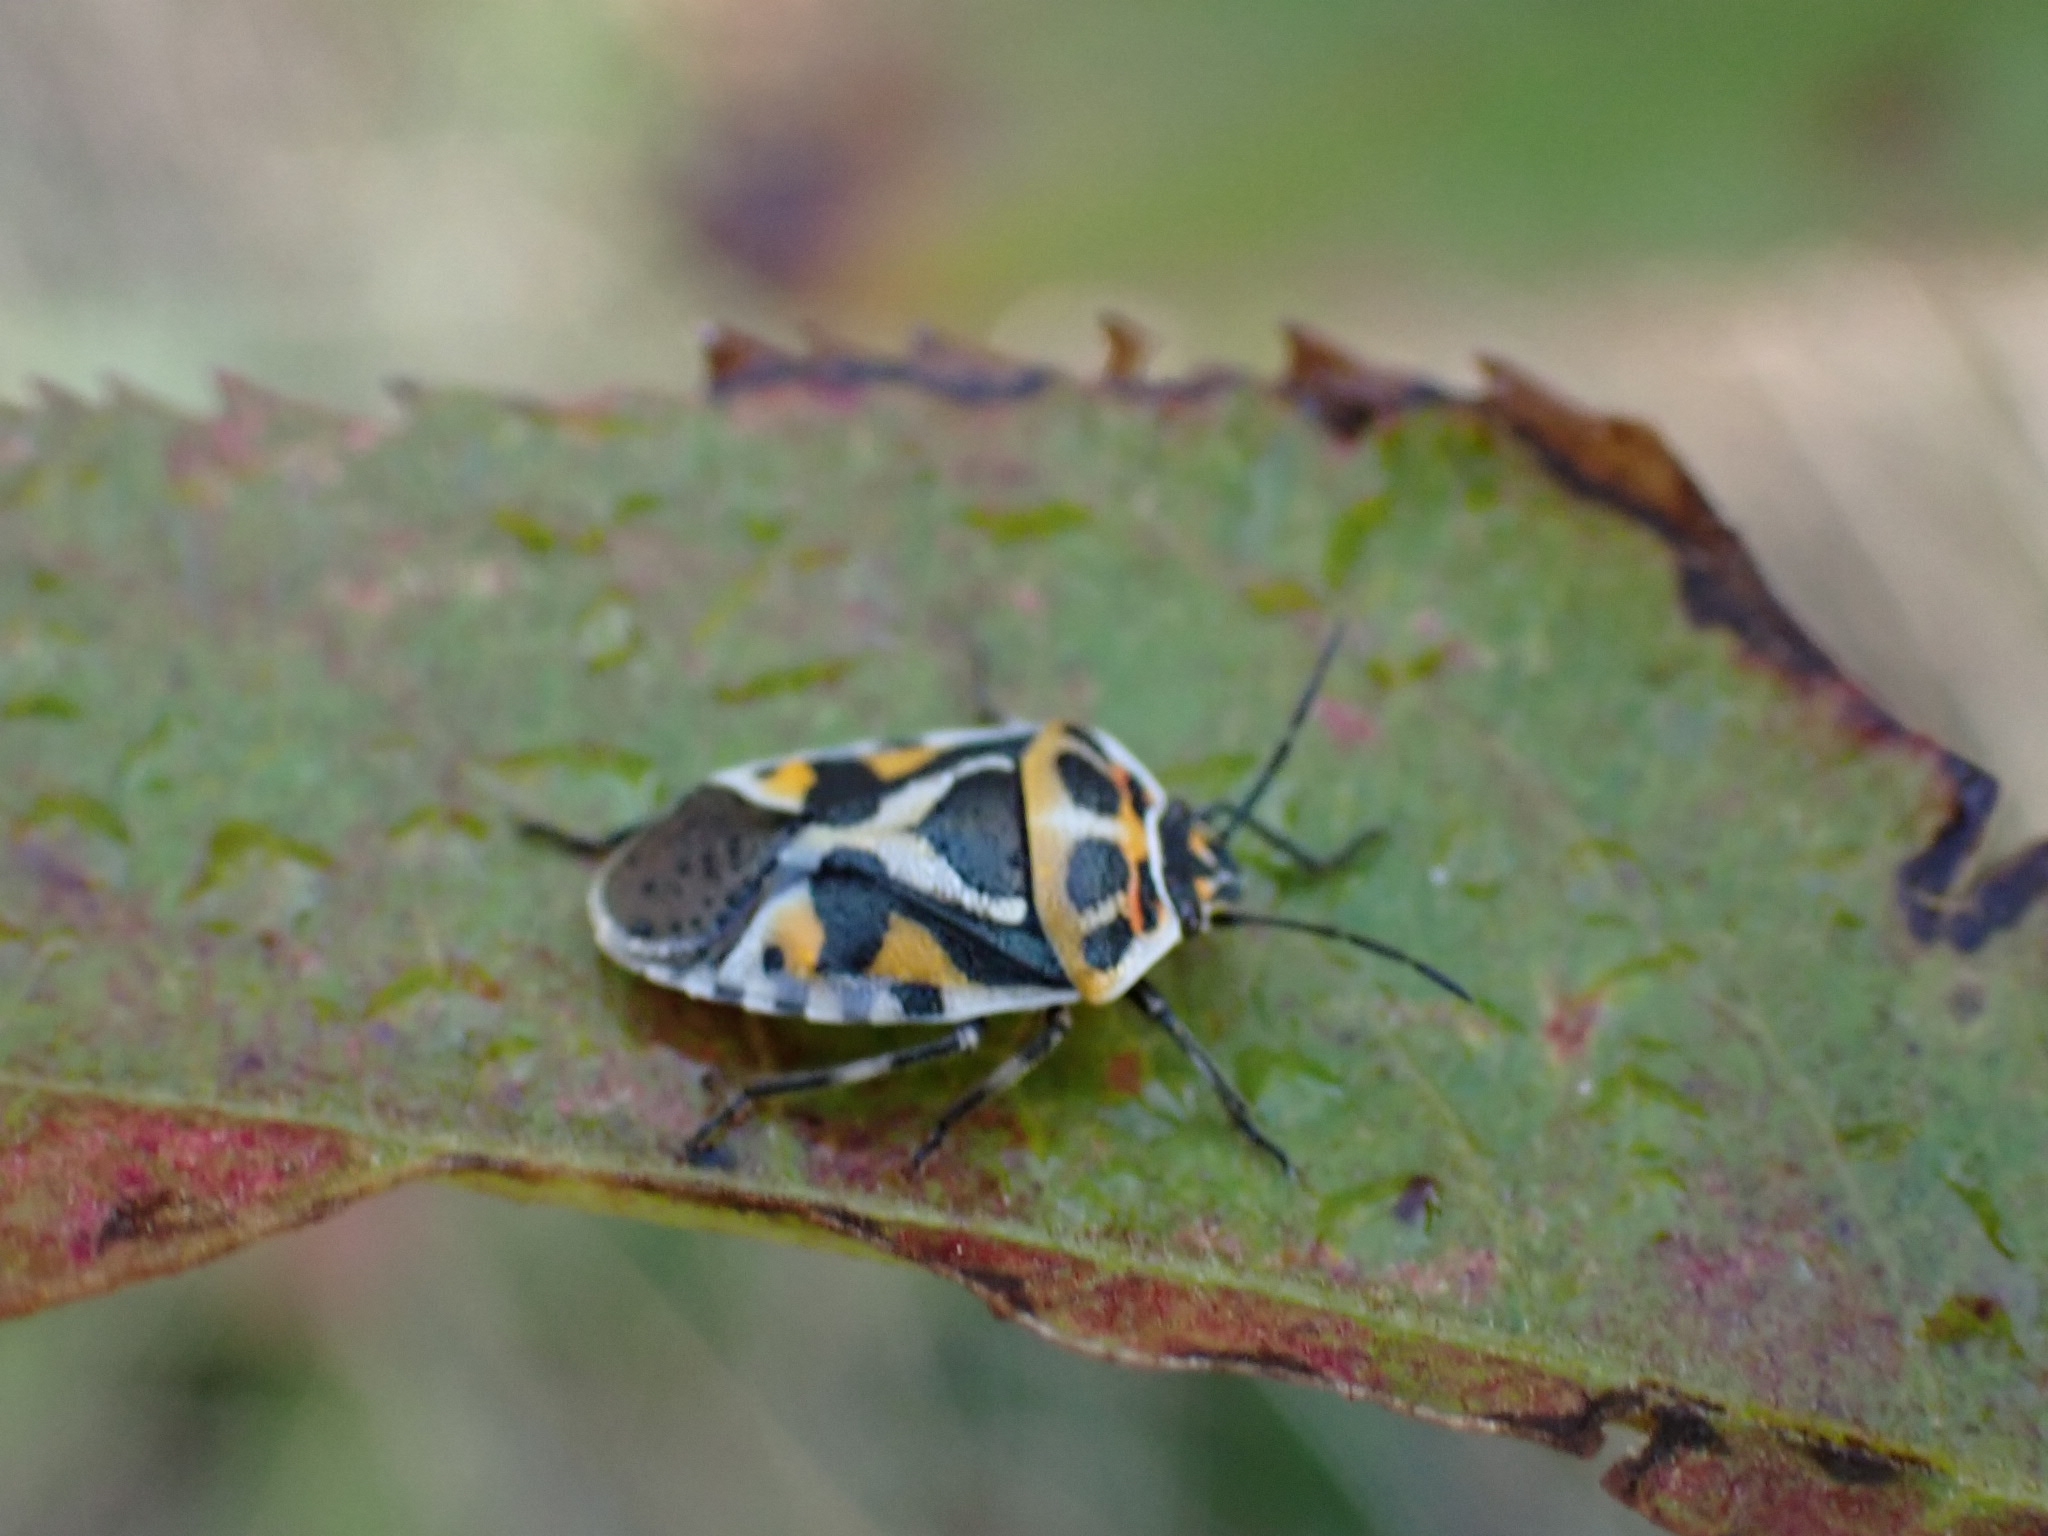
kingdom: Animalia
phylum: Arthropoda
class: Insecta
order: Hemiptera
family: Pentatomidae
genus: Eurydema
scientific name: Eurydema ornata
